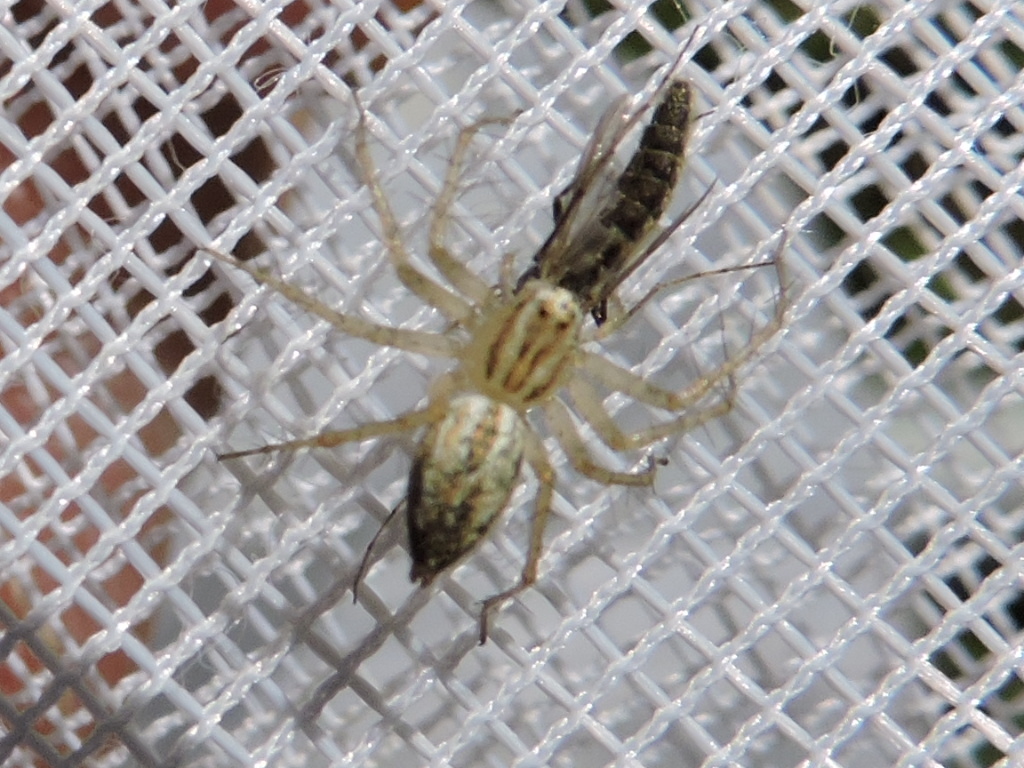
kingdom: Animalia
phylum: Arthropoda
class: Arachnida
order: Araneae
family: Oxyopidae
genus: Oxyopes
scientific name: Oxyopes salticus
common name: Lynx spiders
